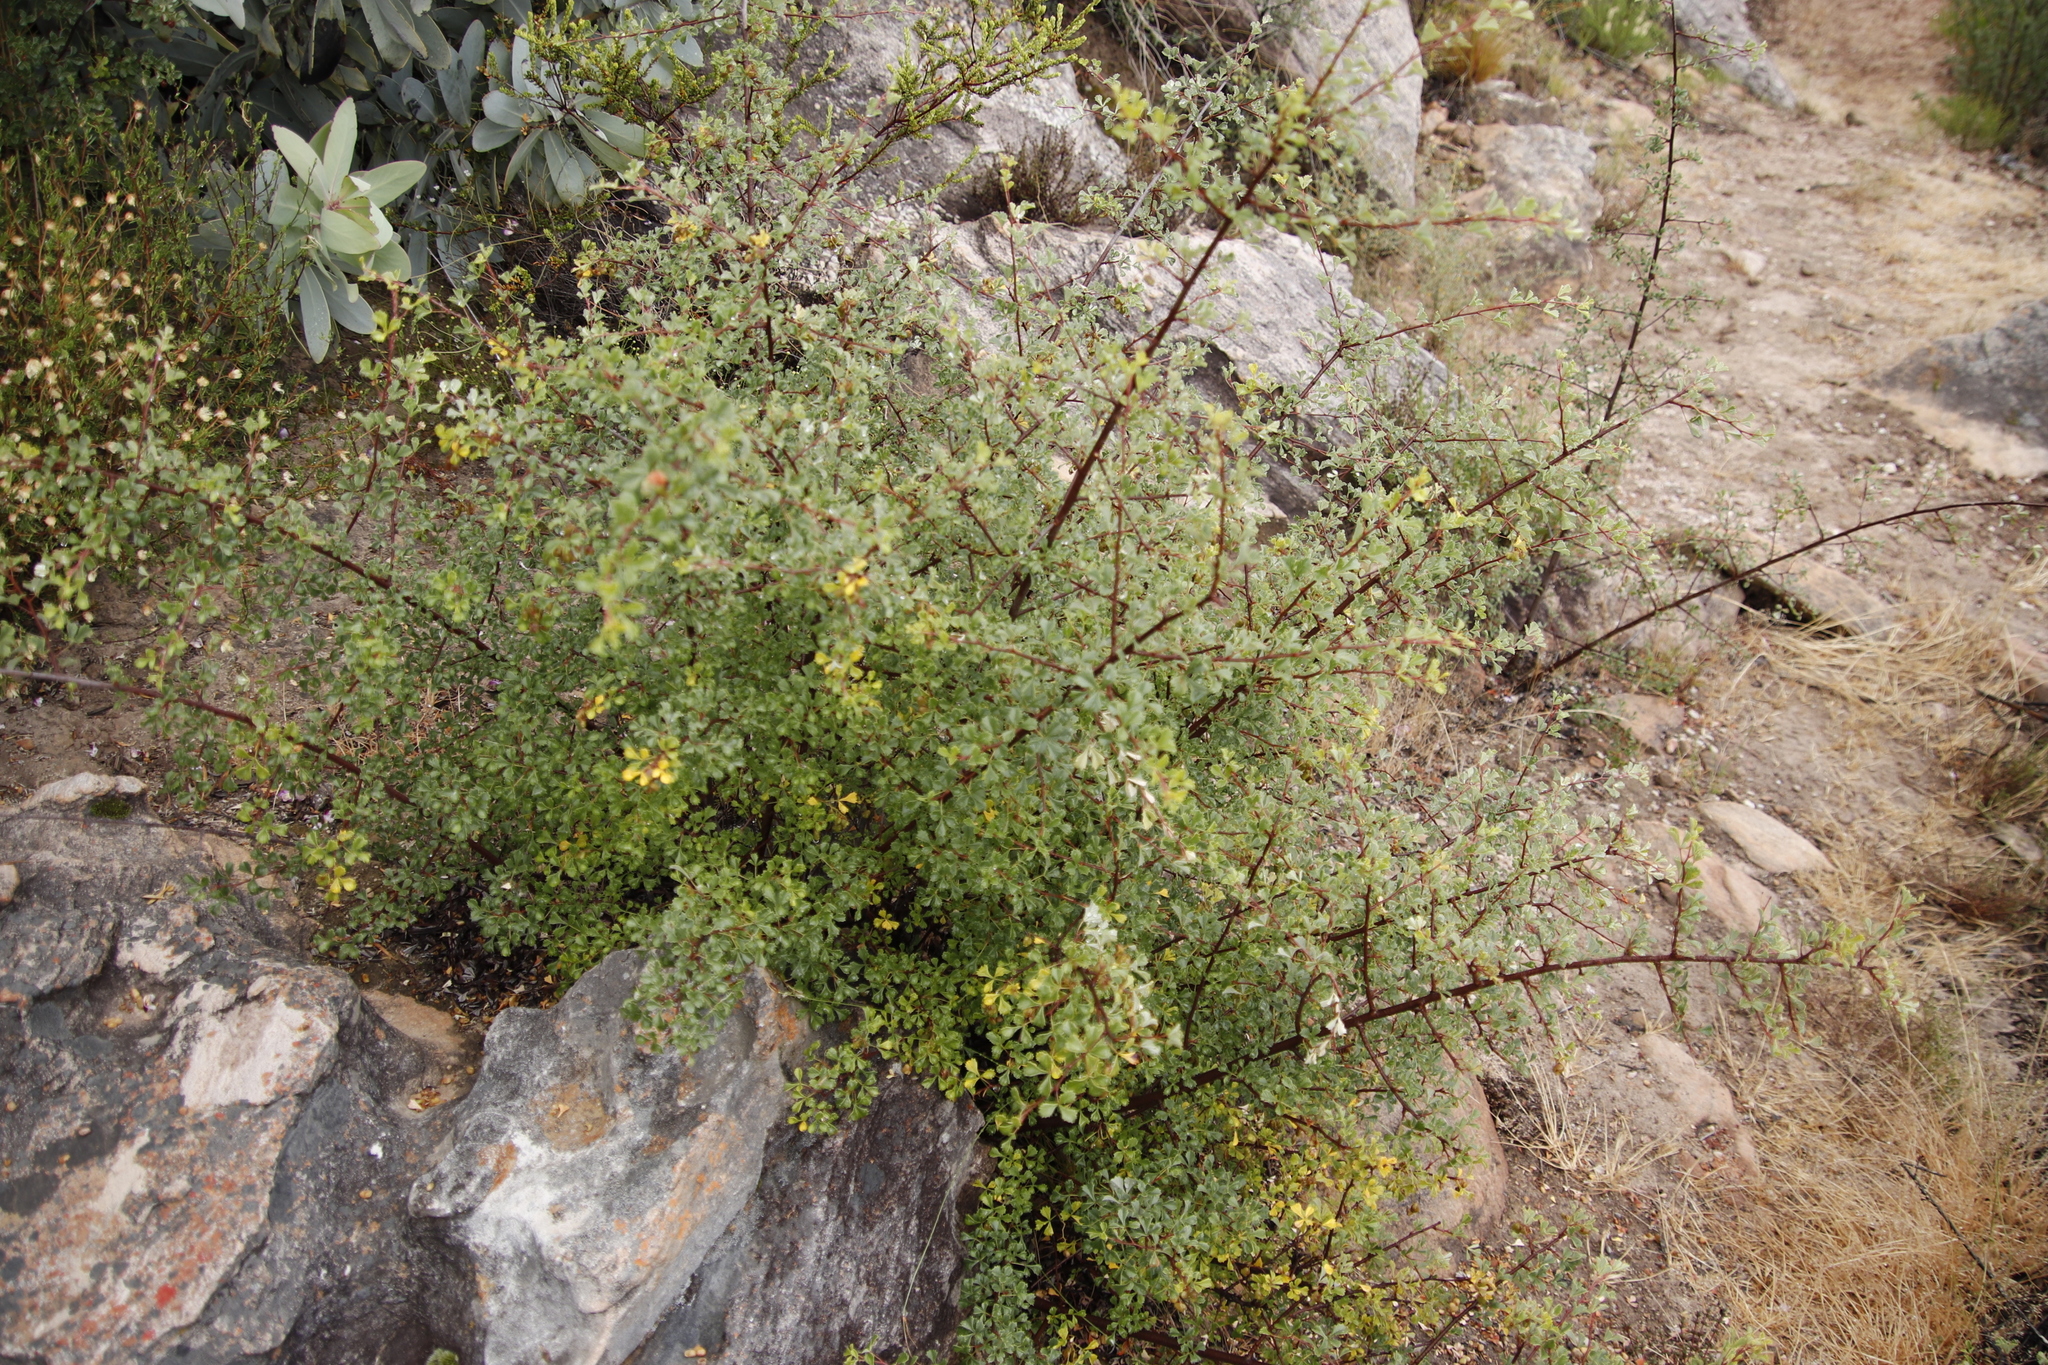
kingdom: Plantae
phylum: Tracheophyta
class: Magnoliopsida
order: Sapindales
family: Anacardiaceae
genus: Searsia
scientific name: Searsia dissecta
